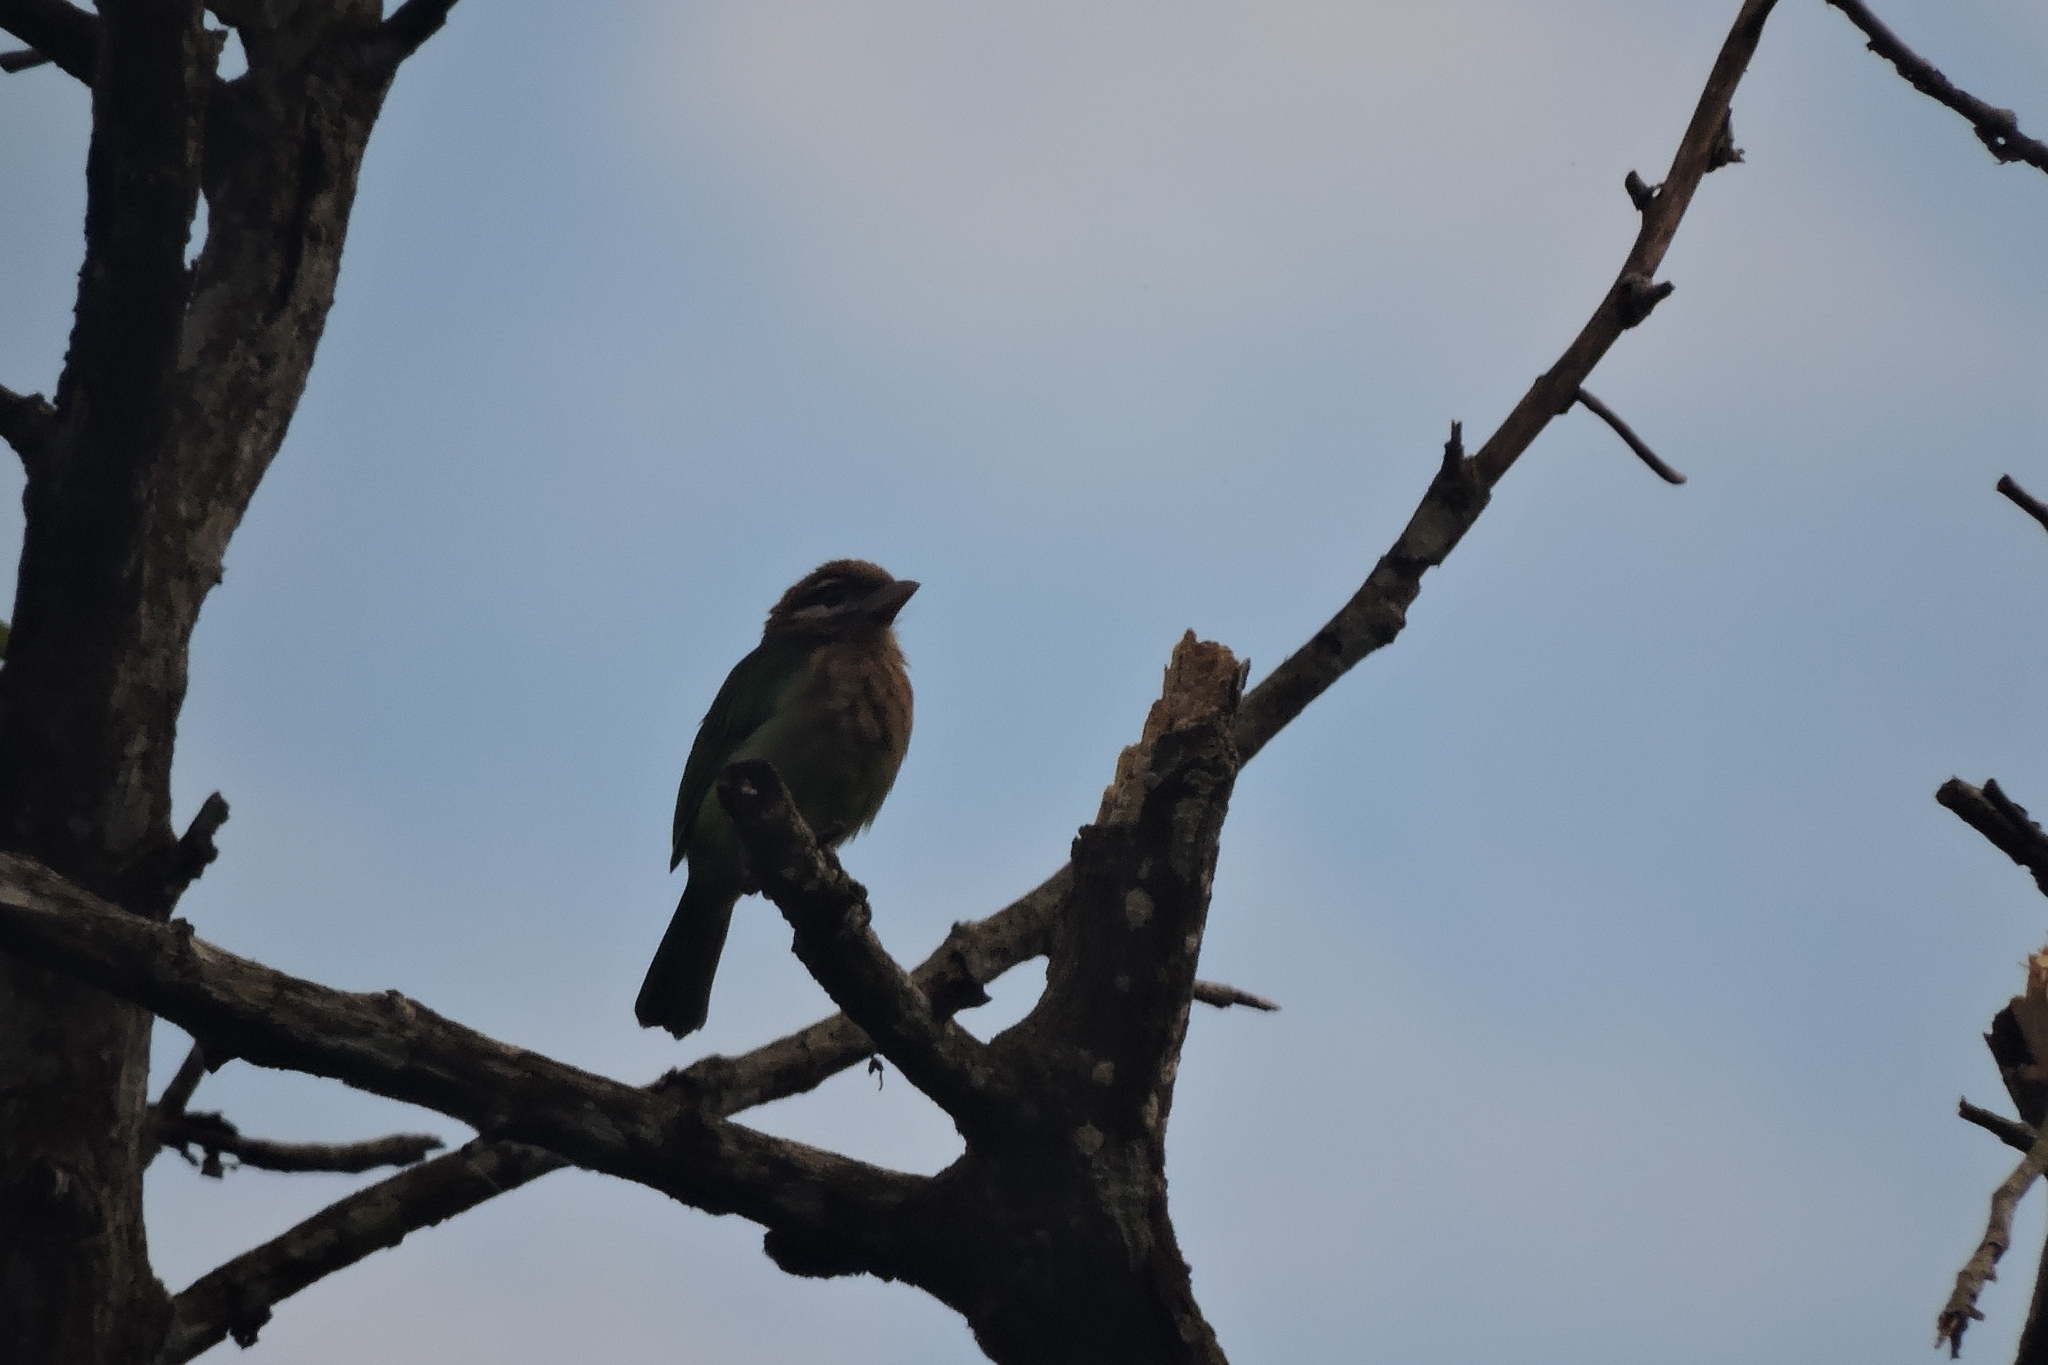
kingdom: Animalia
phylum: Chordata
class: Aves
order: Piciformes
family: Megalaimidae
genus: Psilopogon
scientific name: Psilopogon viridis
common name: White-cheeked barbet
